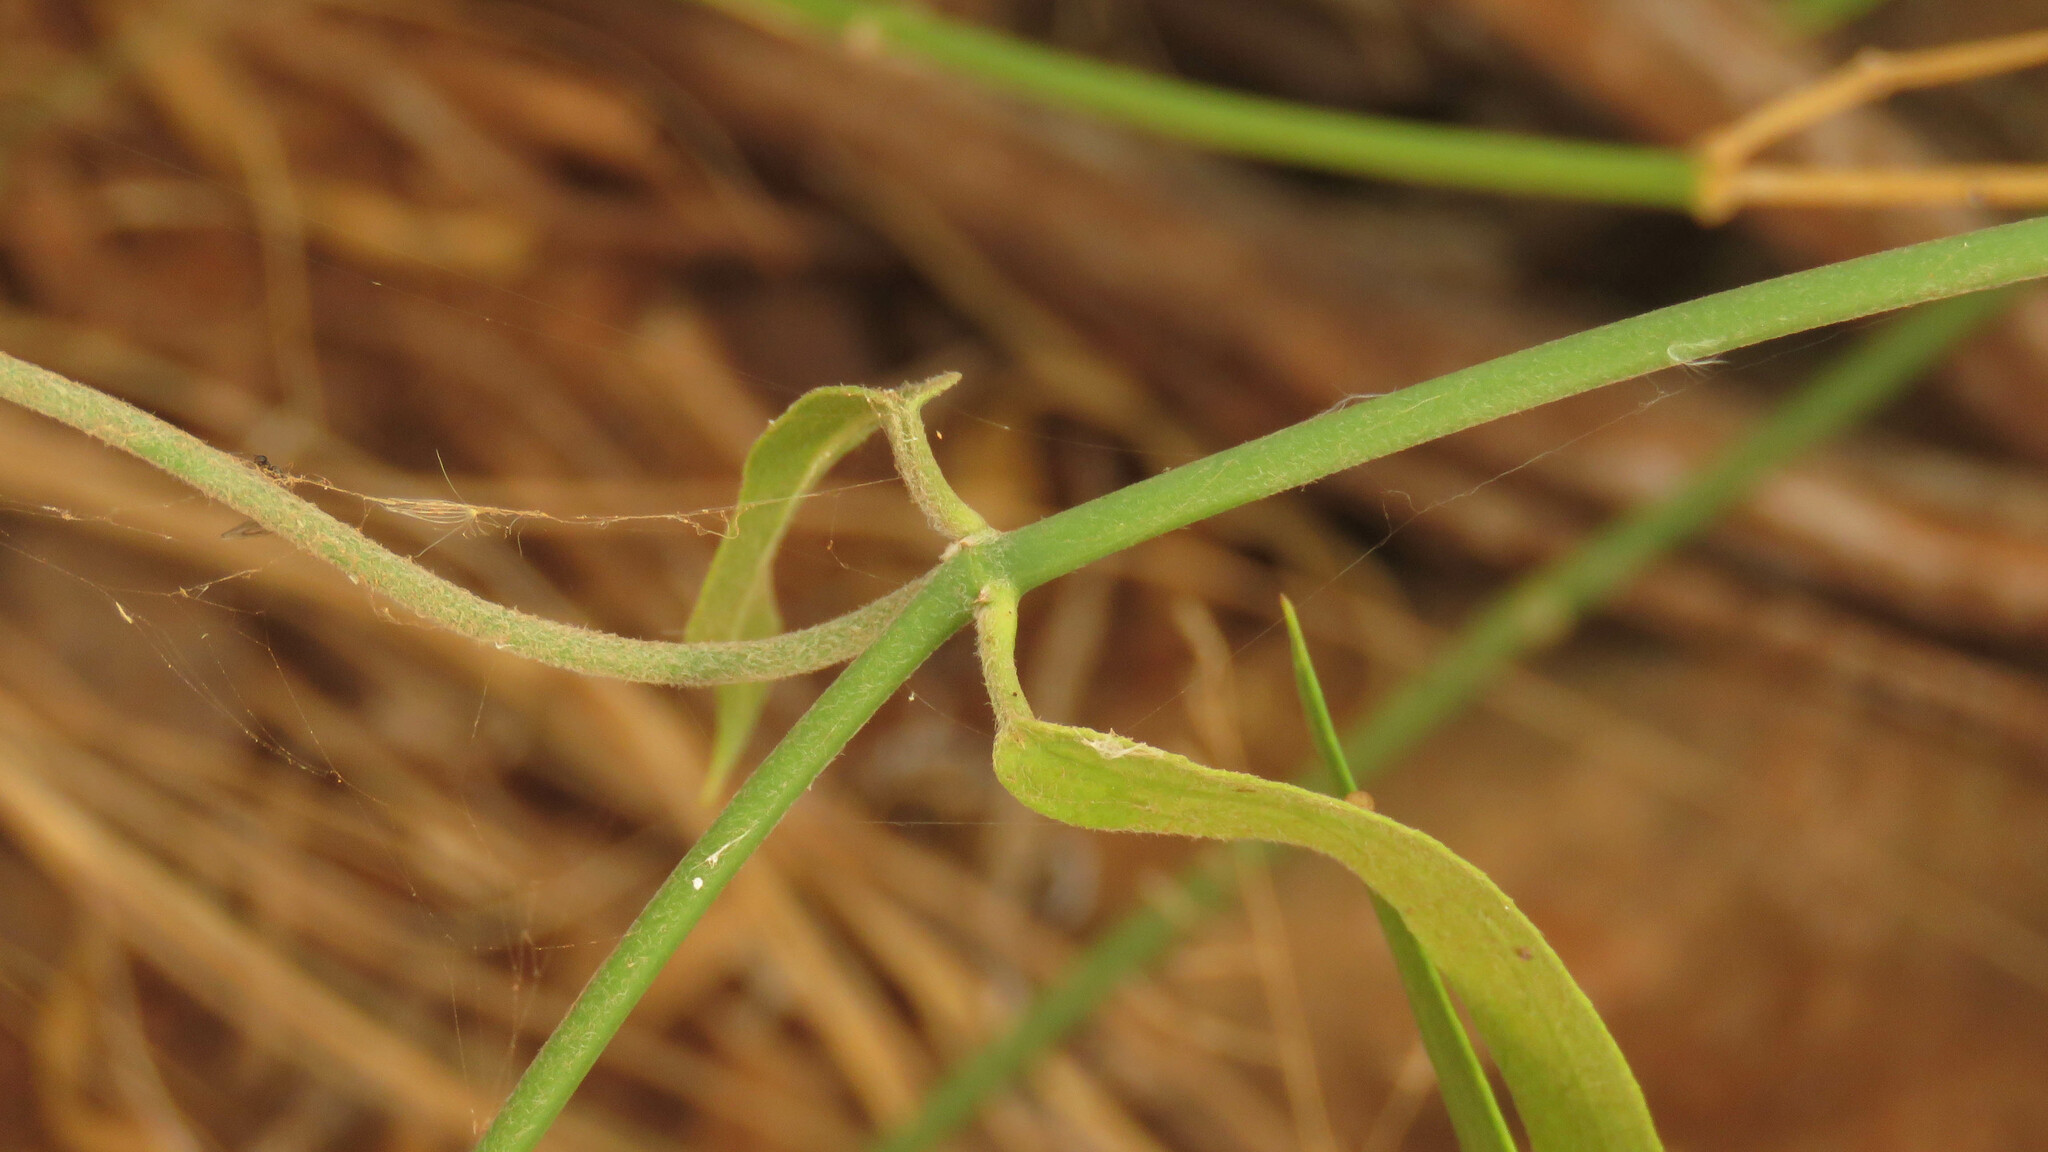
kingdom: Plantae
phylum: Tracheophyta
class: Magnoliopsida
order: Gentianales
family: Apocynaceae
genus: Funastrum
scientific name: Funastrum clausum
